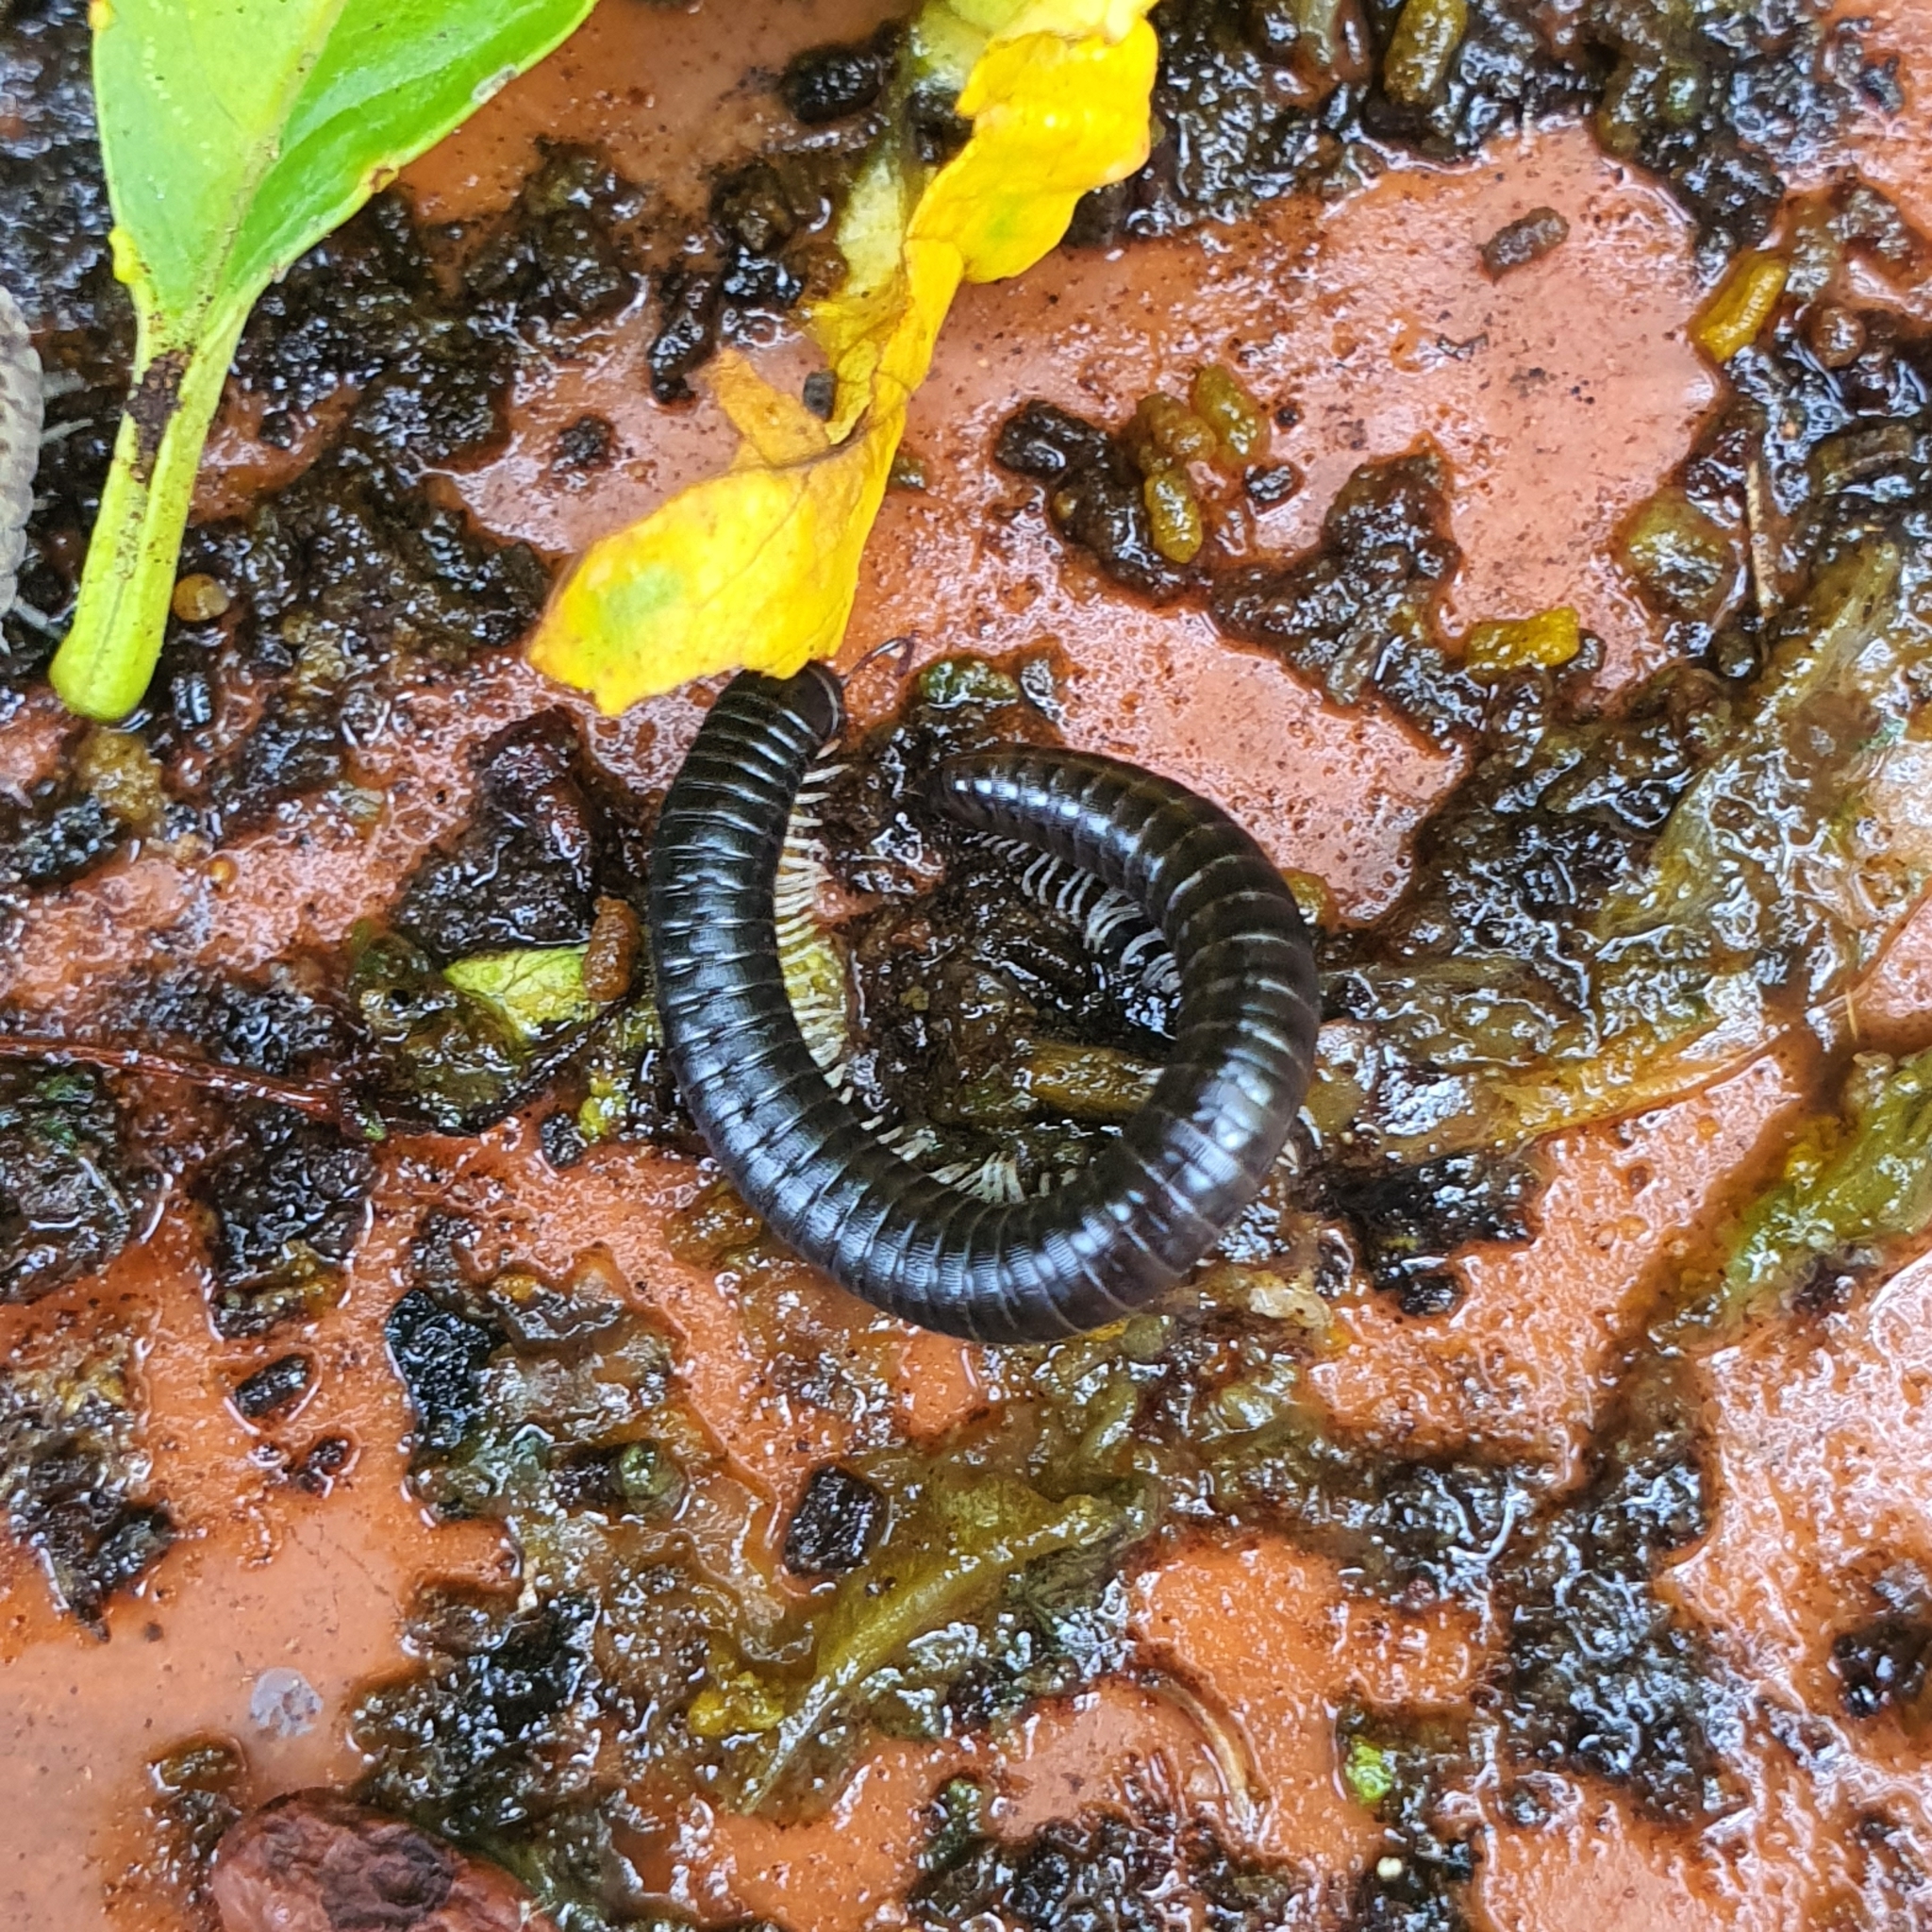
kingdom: Animalia
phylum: Arthropoda
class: Diplopoda
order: Julida
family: Julidae
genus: Ommatoiulus
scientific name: Ommatoiulus moreleti
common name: Portuguese millipede
